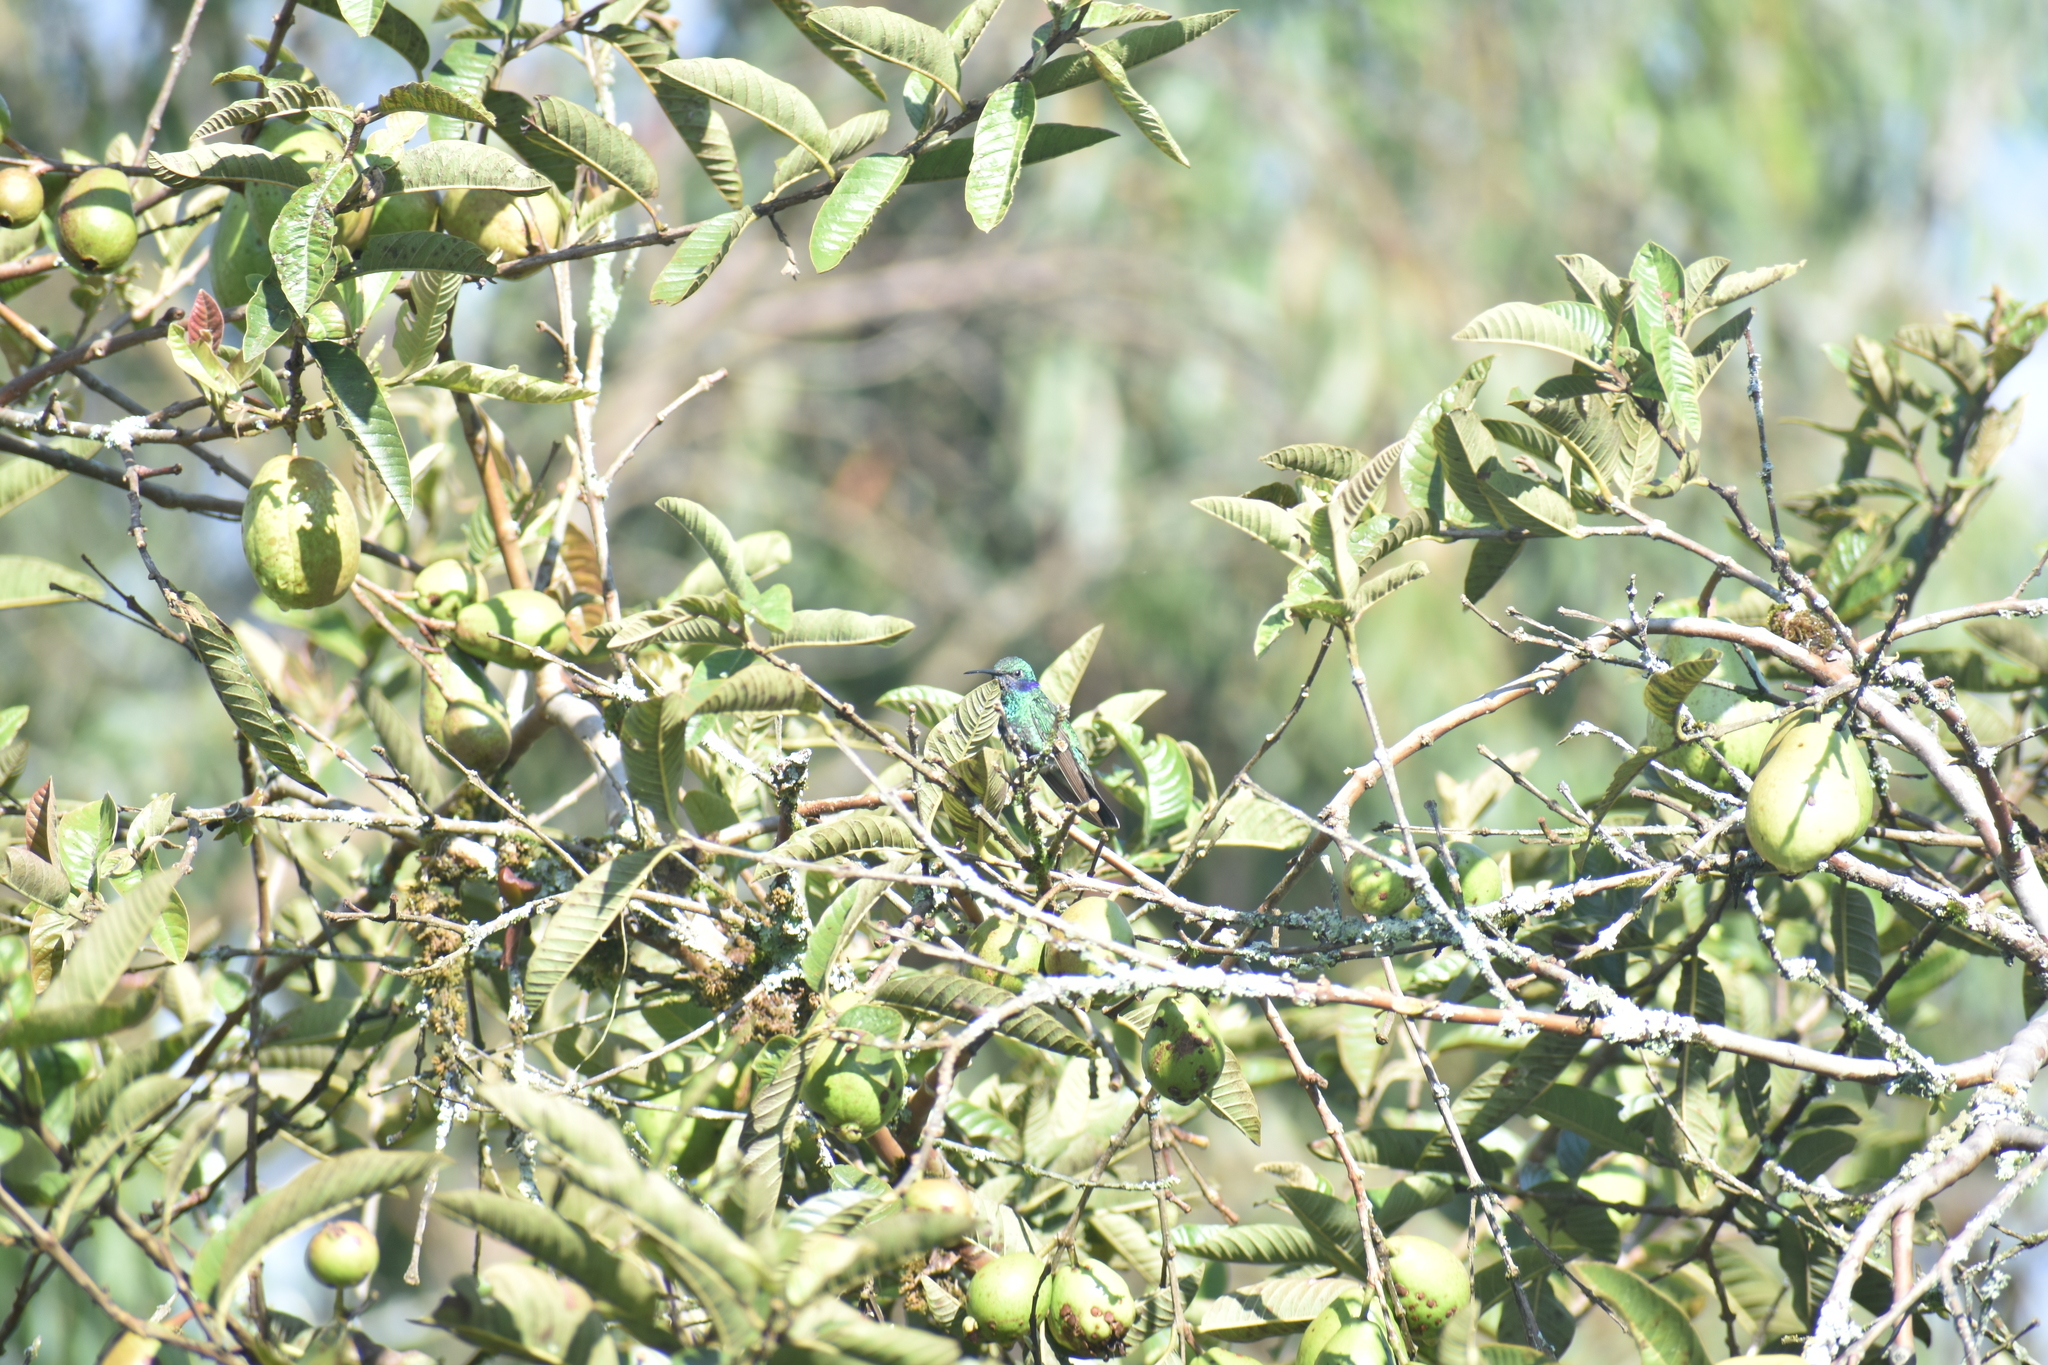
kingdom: Animalia
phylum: Chordata
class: Aves
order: Apodiformes
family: Trochilidae
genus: Colibri
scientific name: Colibri coruscans
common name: Sparkling violetear
